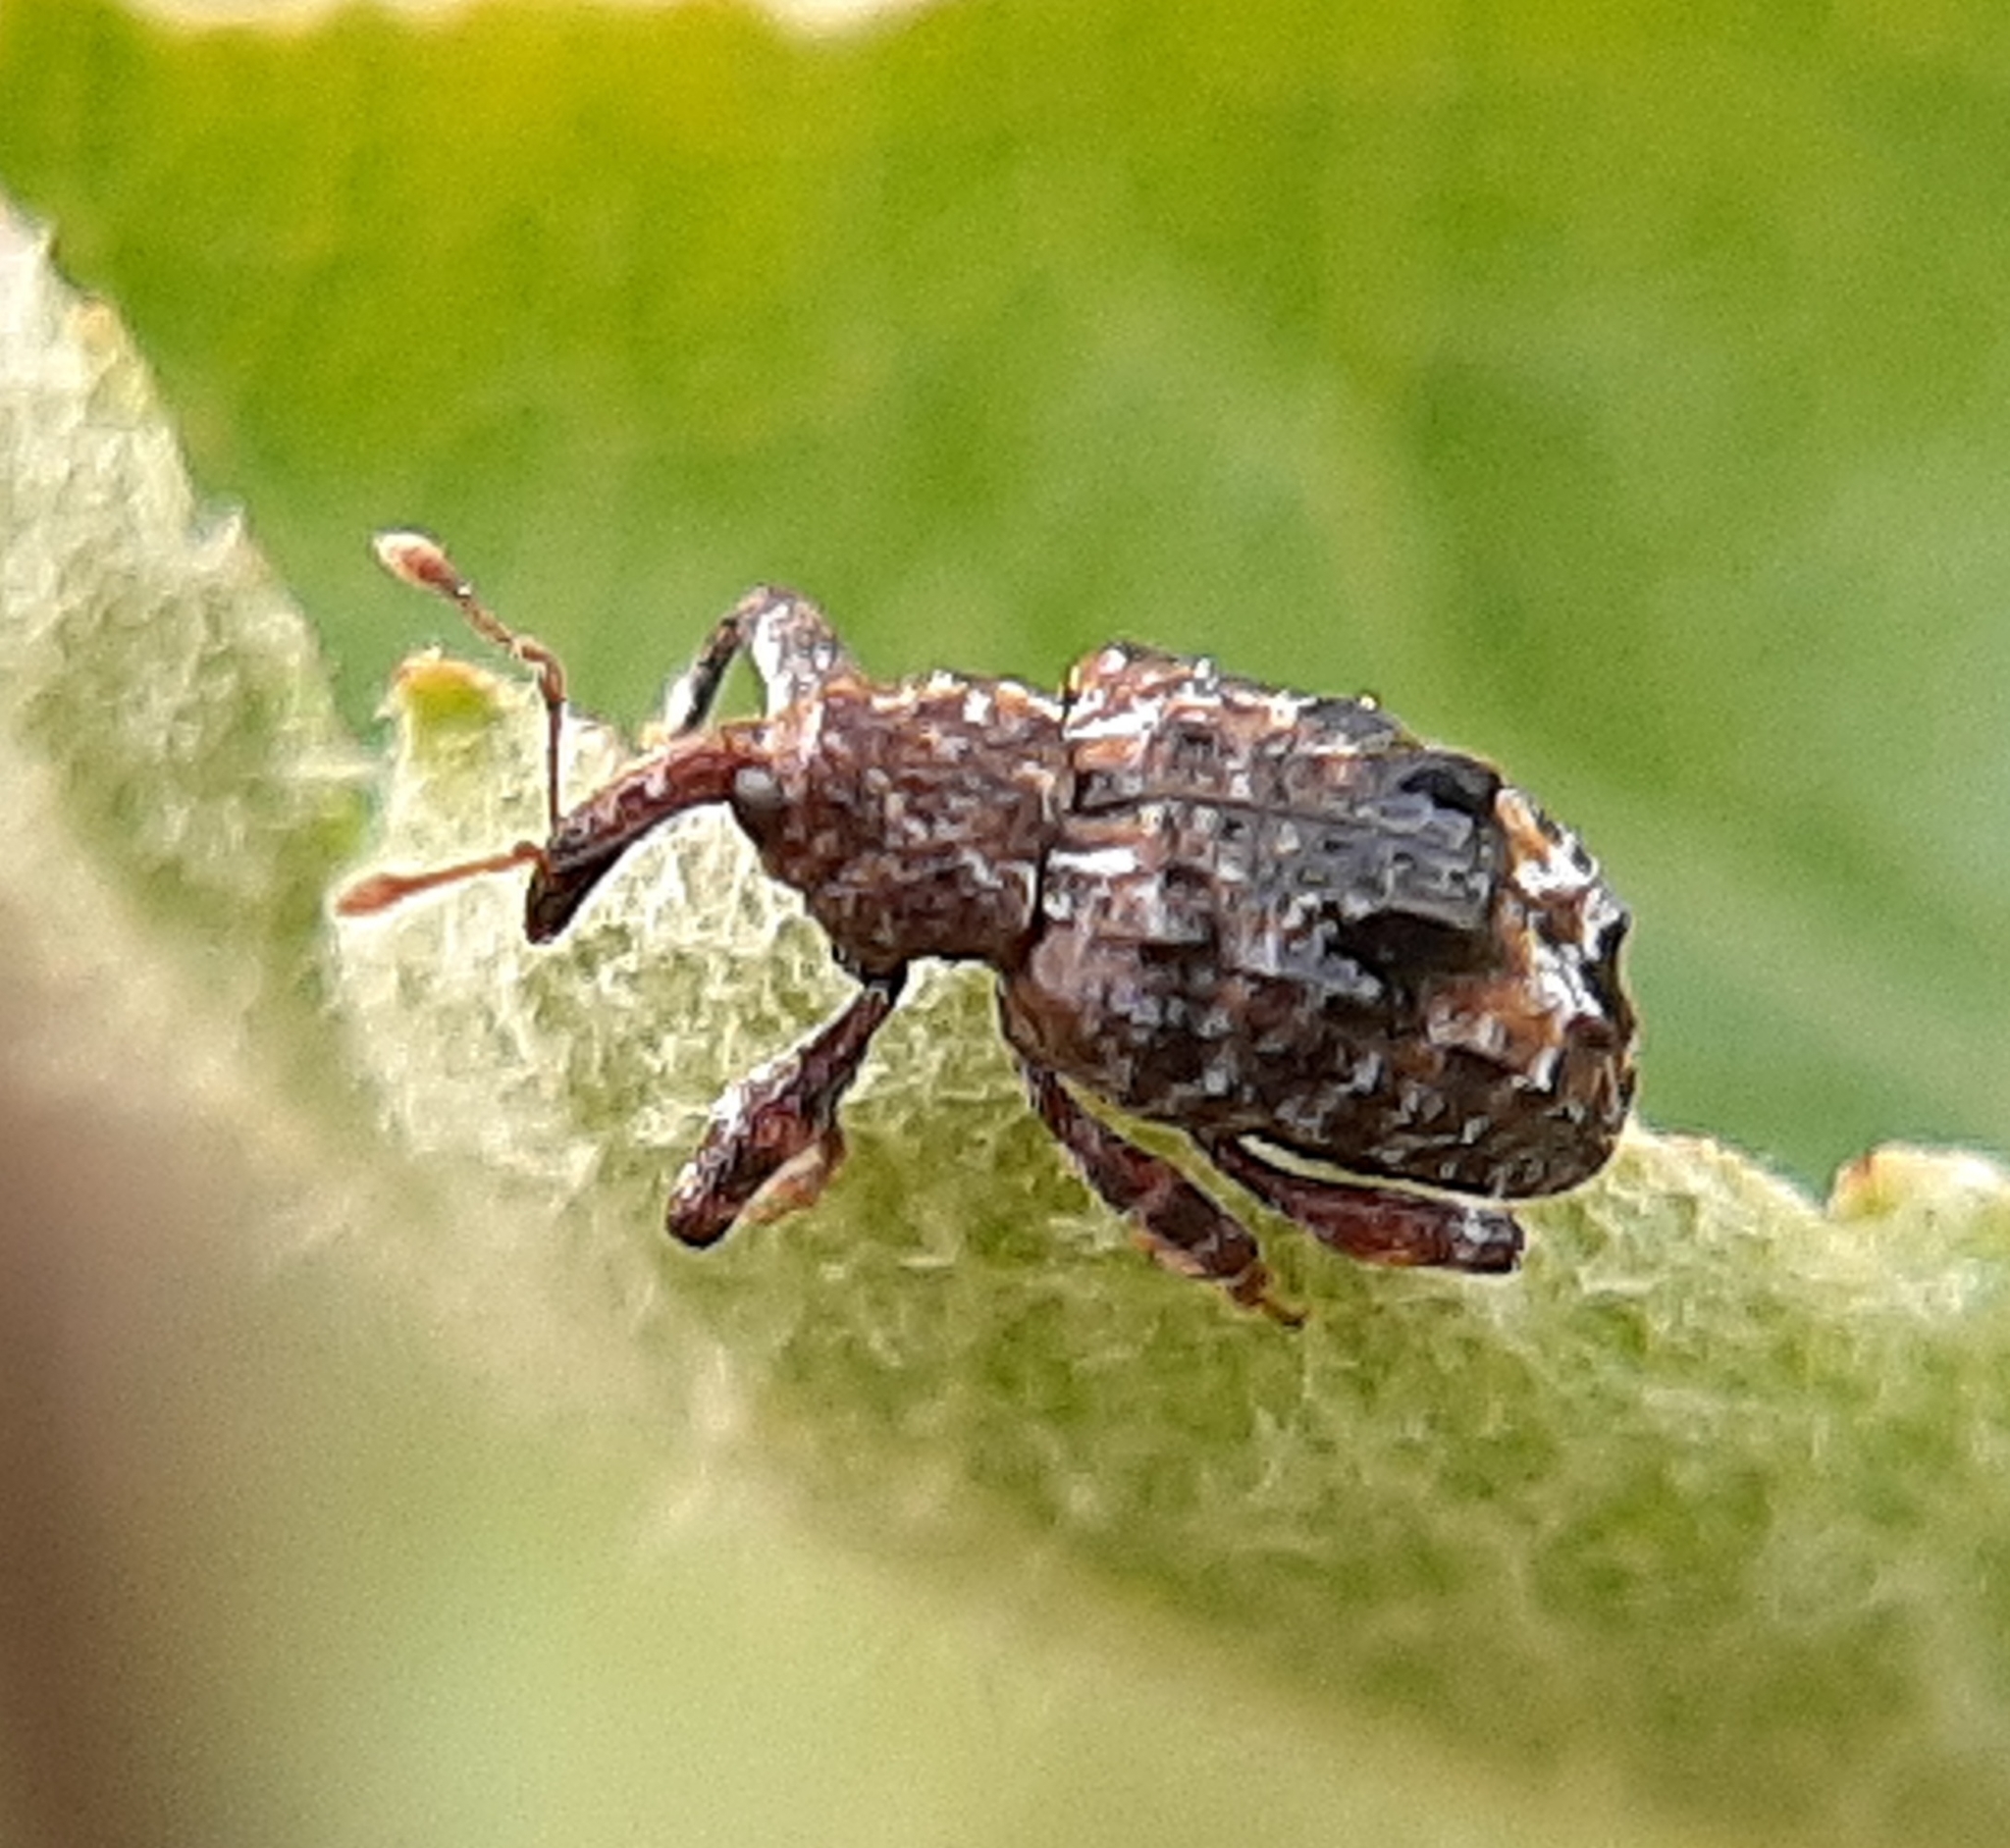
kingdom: Animalia
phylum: Arthropoda
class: Insecta
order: Coleoptera
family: Curculionidae
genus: Conotrachelus
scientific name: Conotrachelus nenuphar
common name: Plum curculio
